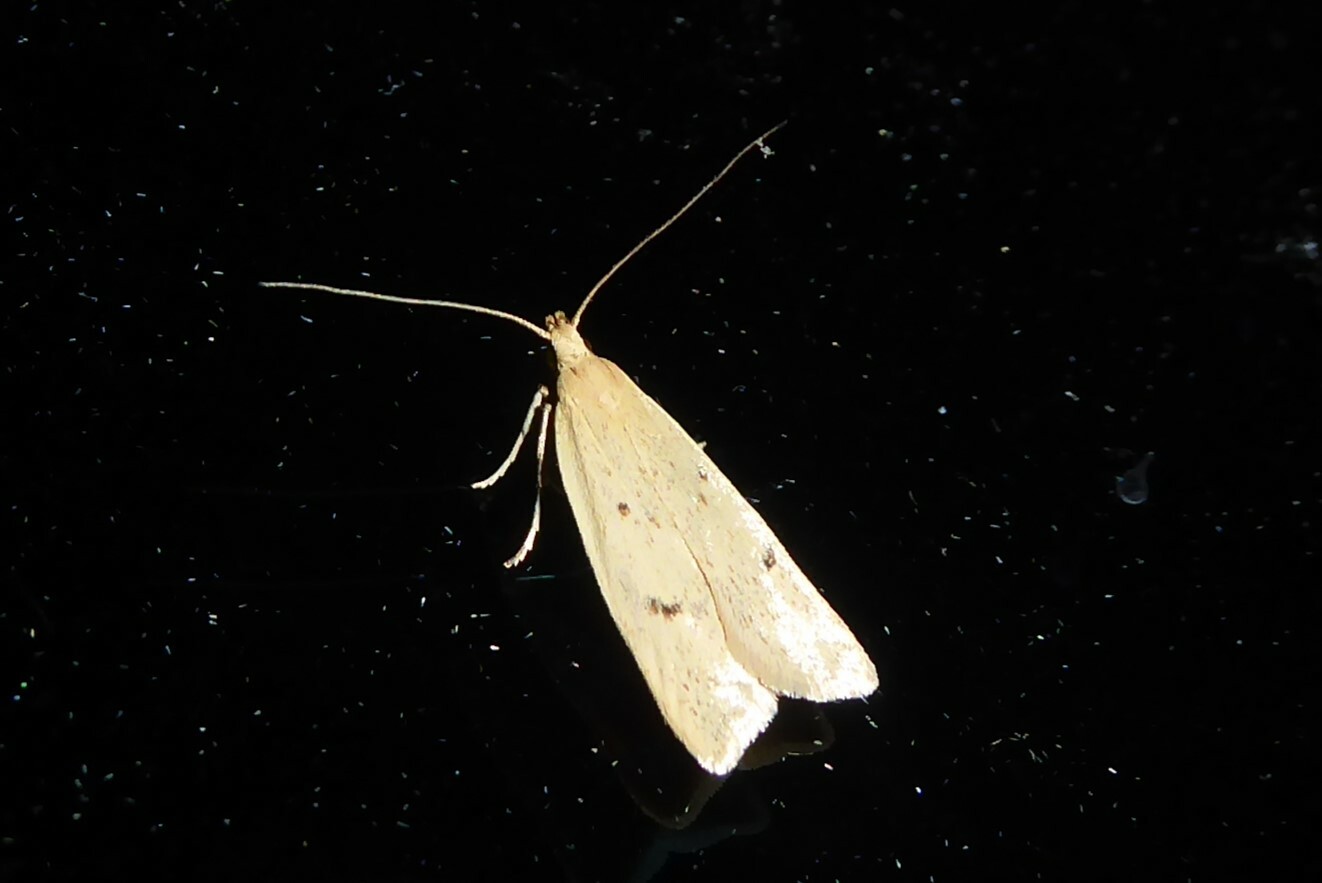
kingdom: Animalia
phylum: Arthropoda
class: Insecta
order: Lepidoptera
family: Oecophoridae
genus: Gymnobathra
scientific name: Gymnobathra sarcoxantha
